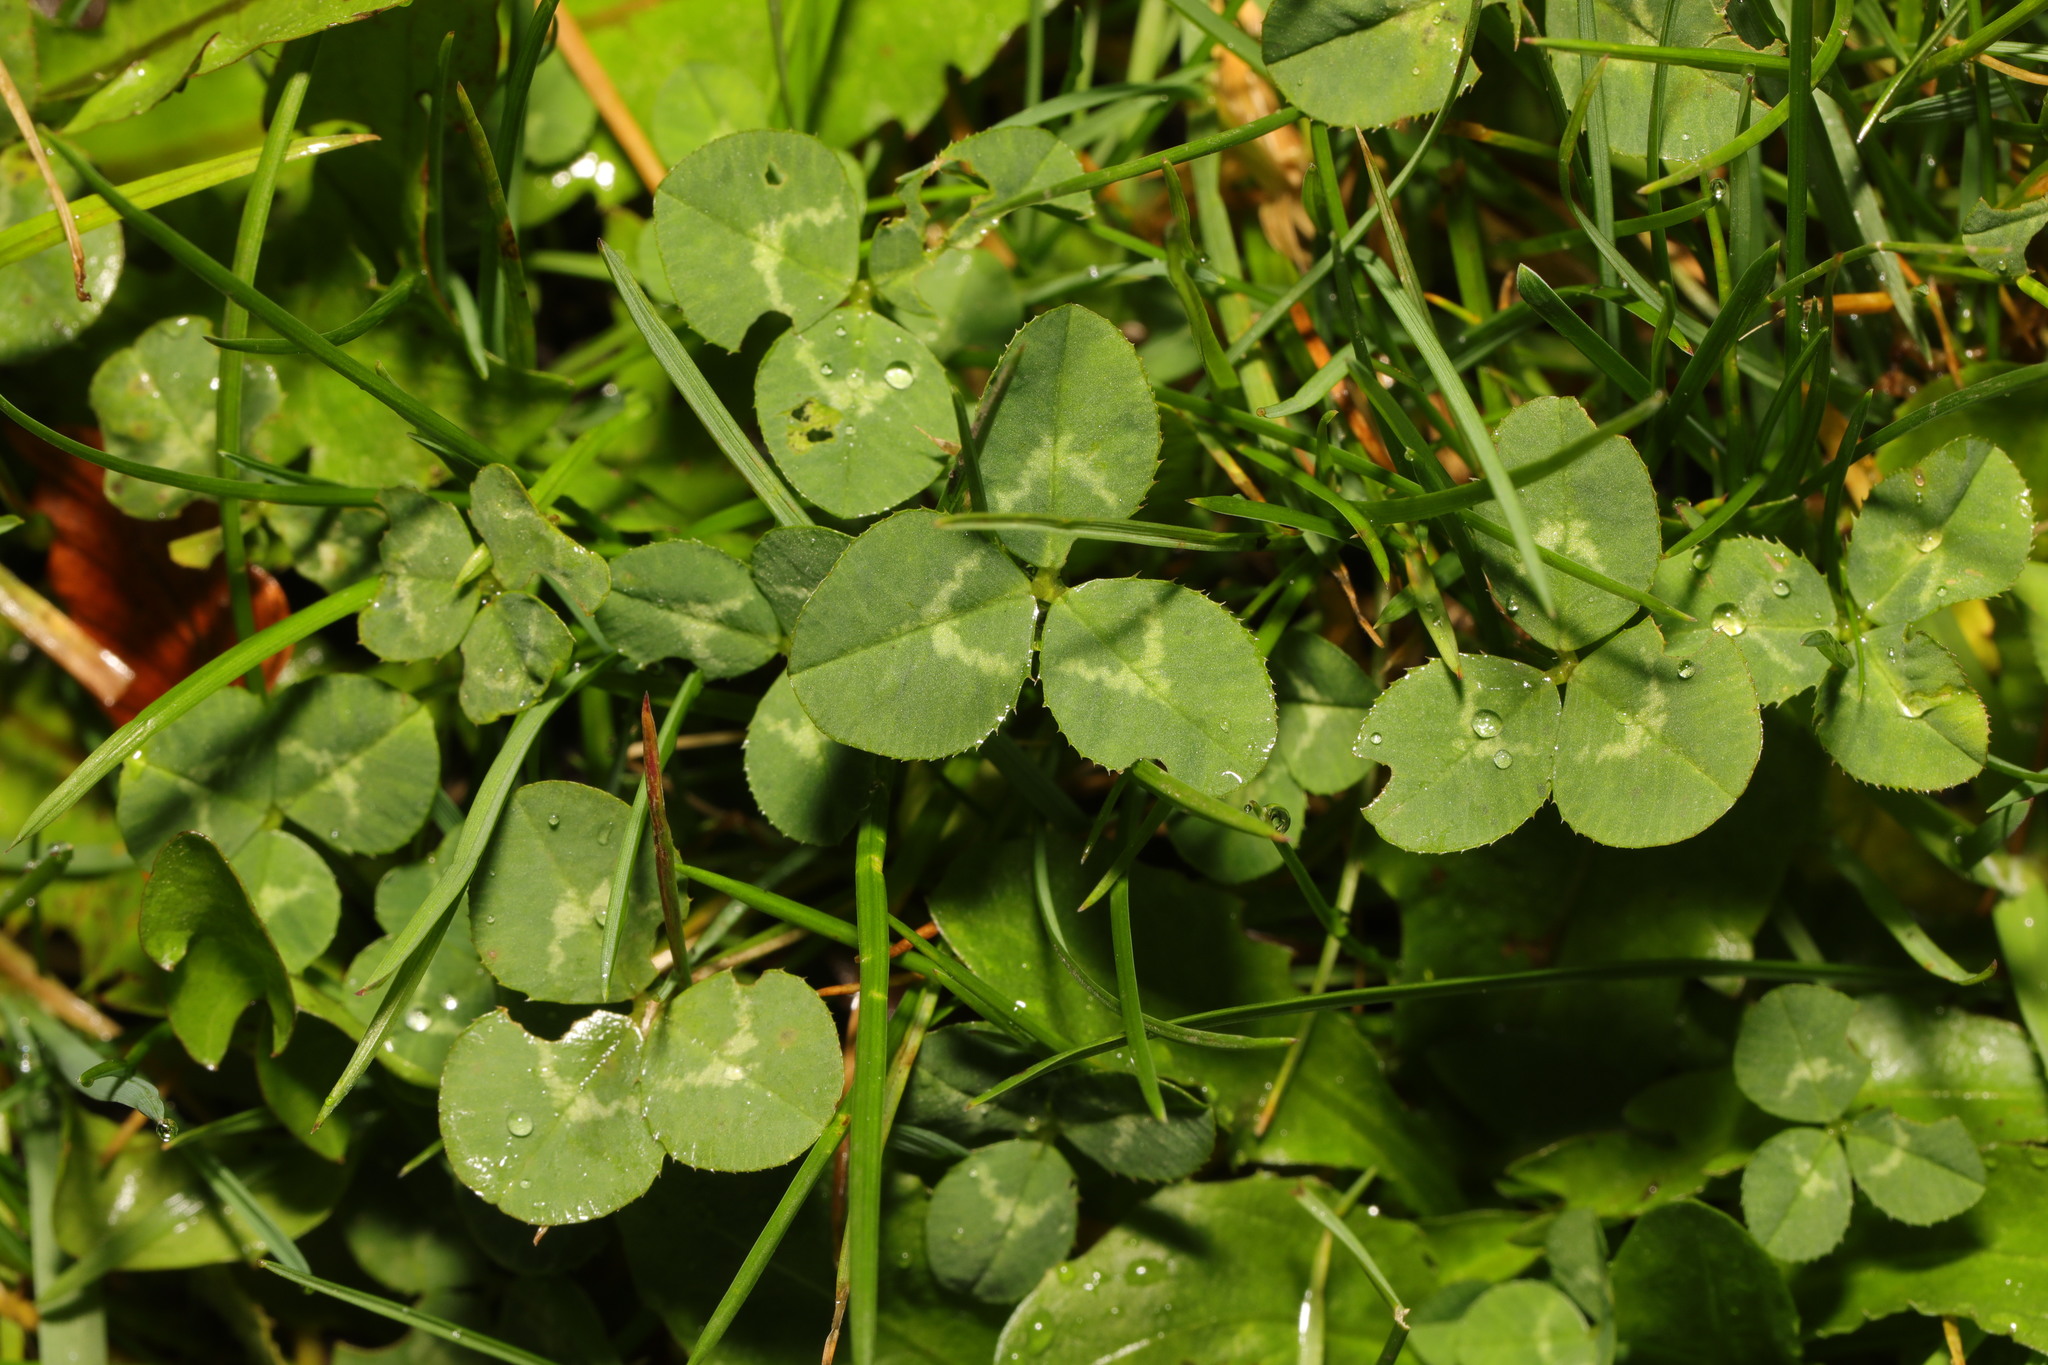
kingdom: Plantae
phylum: Tracheophyta
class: Magnoliopsida
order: Fabales
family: Fabaceae
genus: Trifolium
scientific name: Trifolium repens
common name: White clover
